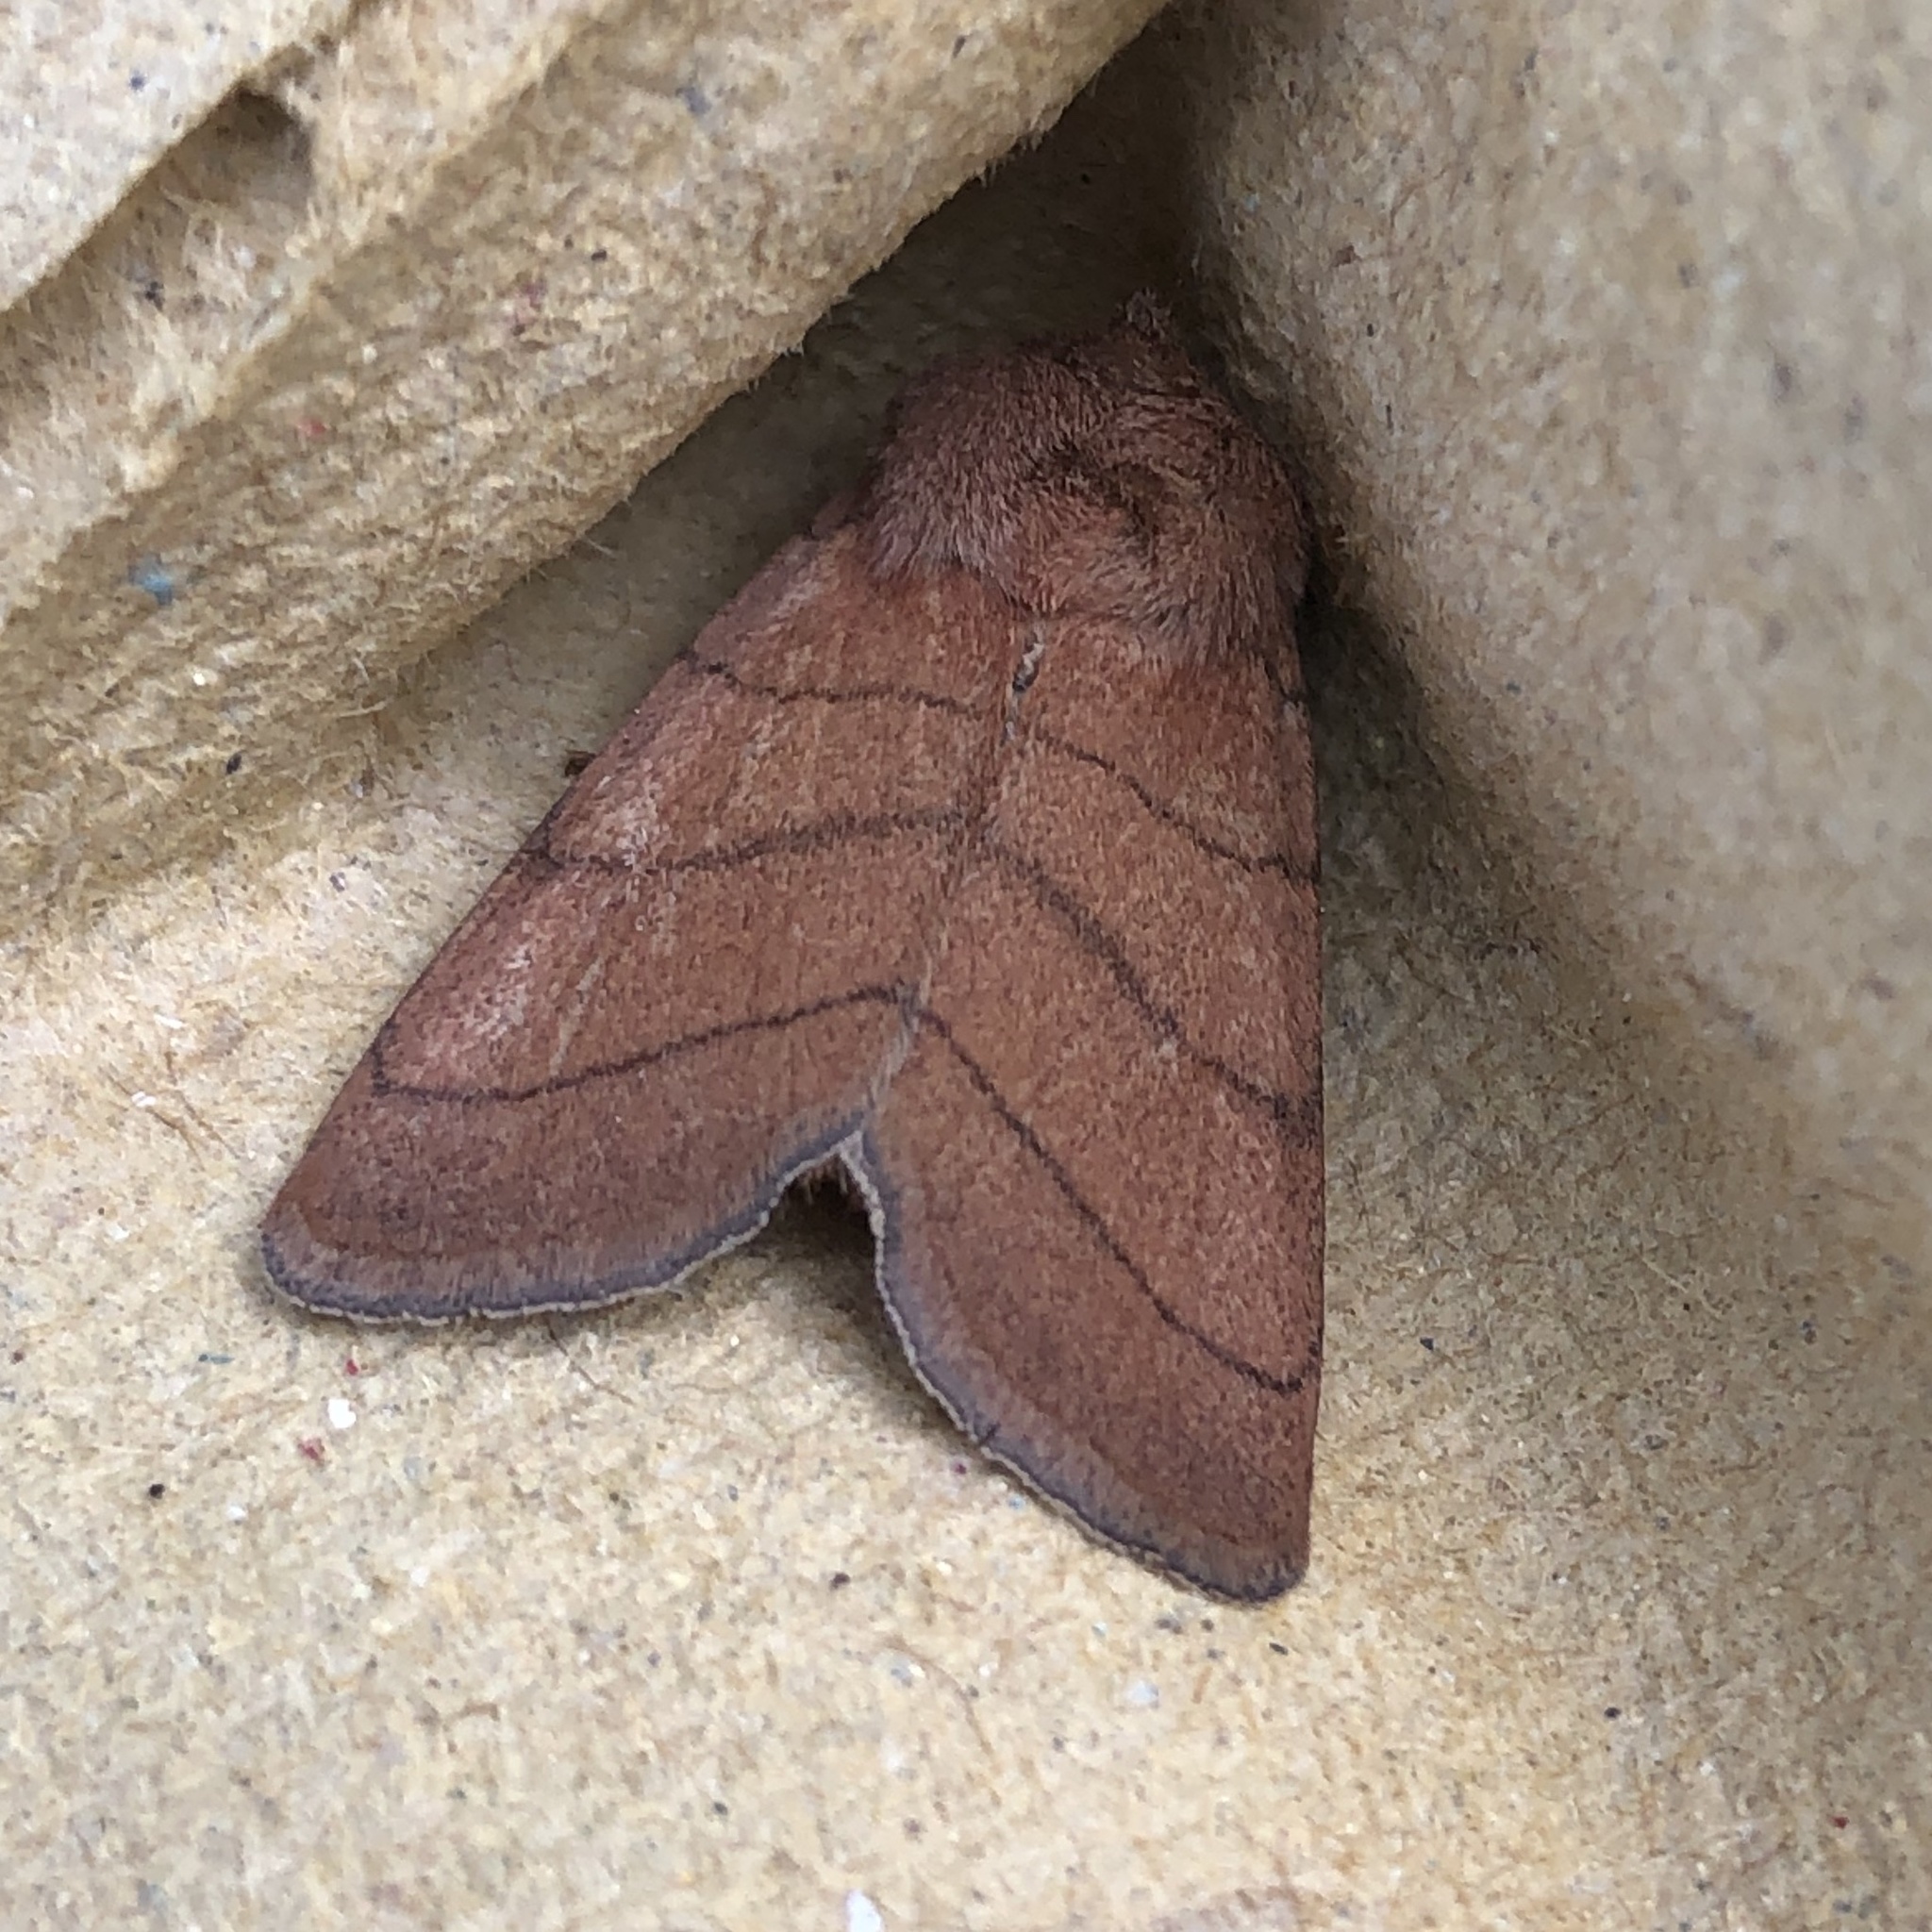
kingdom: Animalia
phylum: Arthropoda
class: Insecta
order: Lepidoptera
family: Noctuidae
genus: Charanyca
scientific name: Charanyca trigrammica
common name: Treble lines
